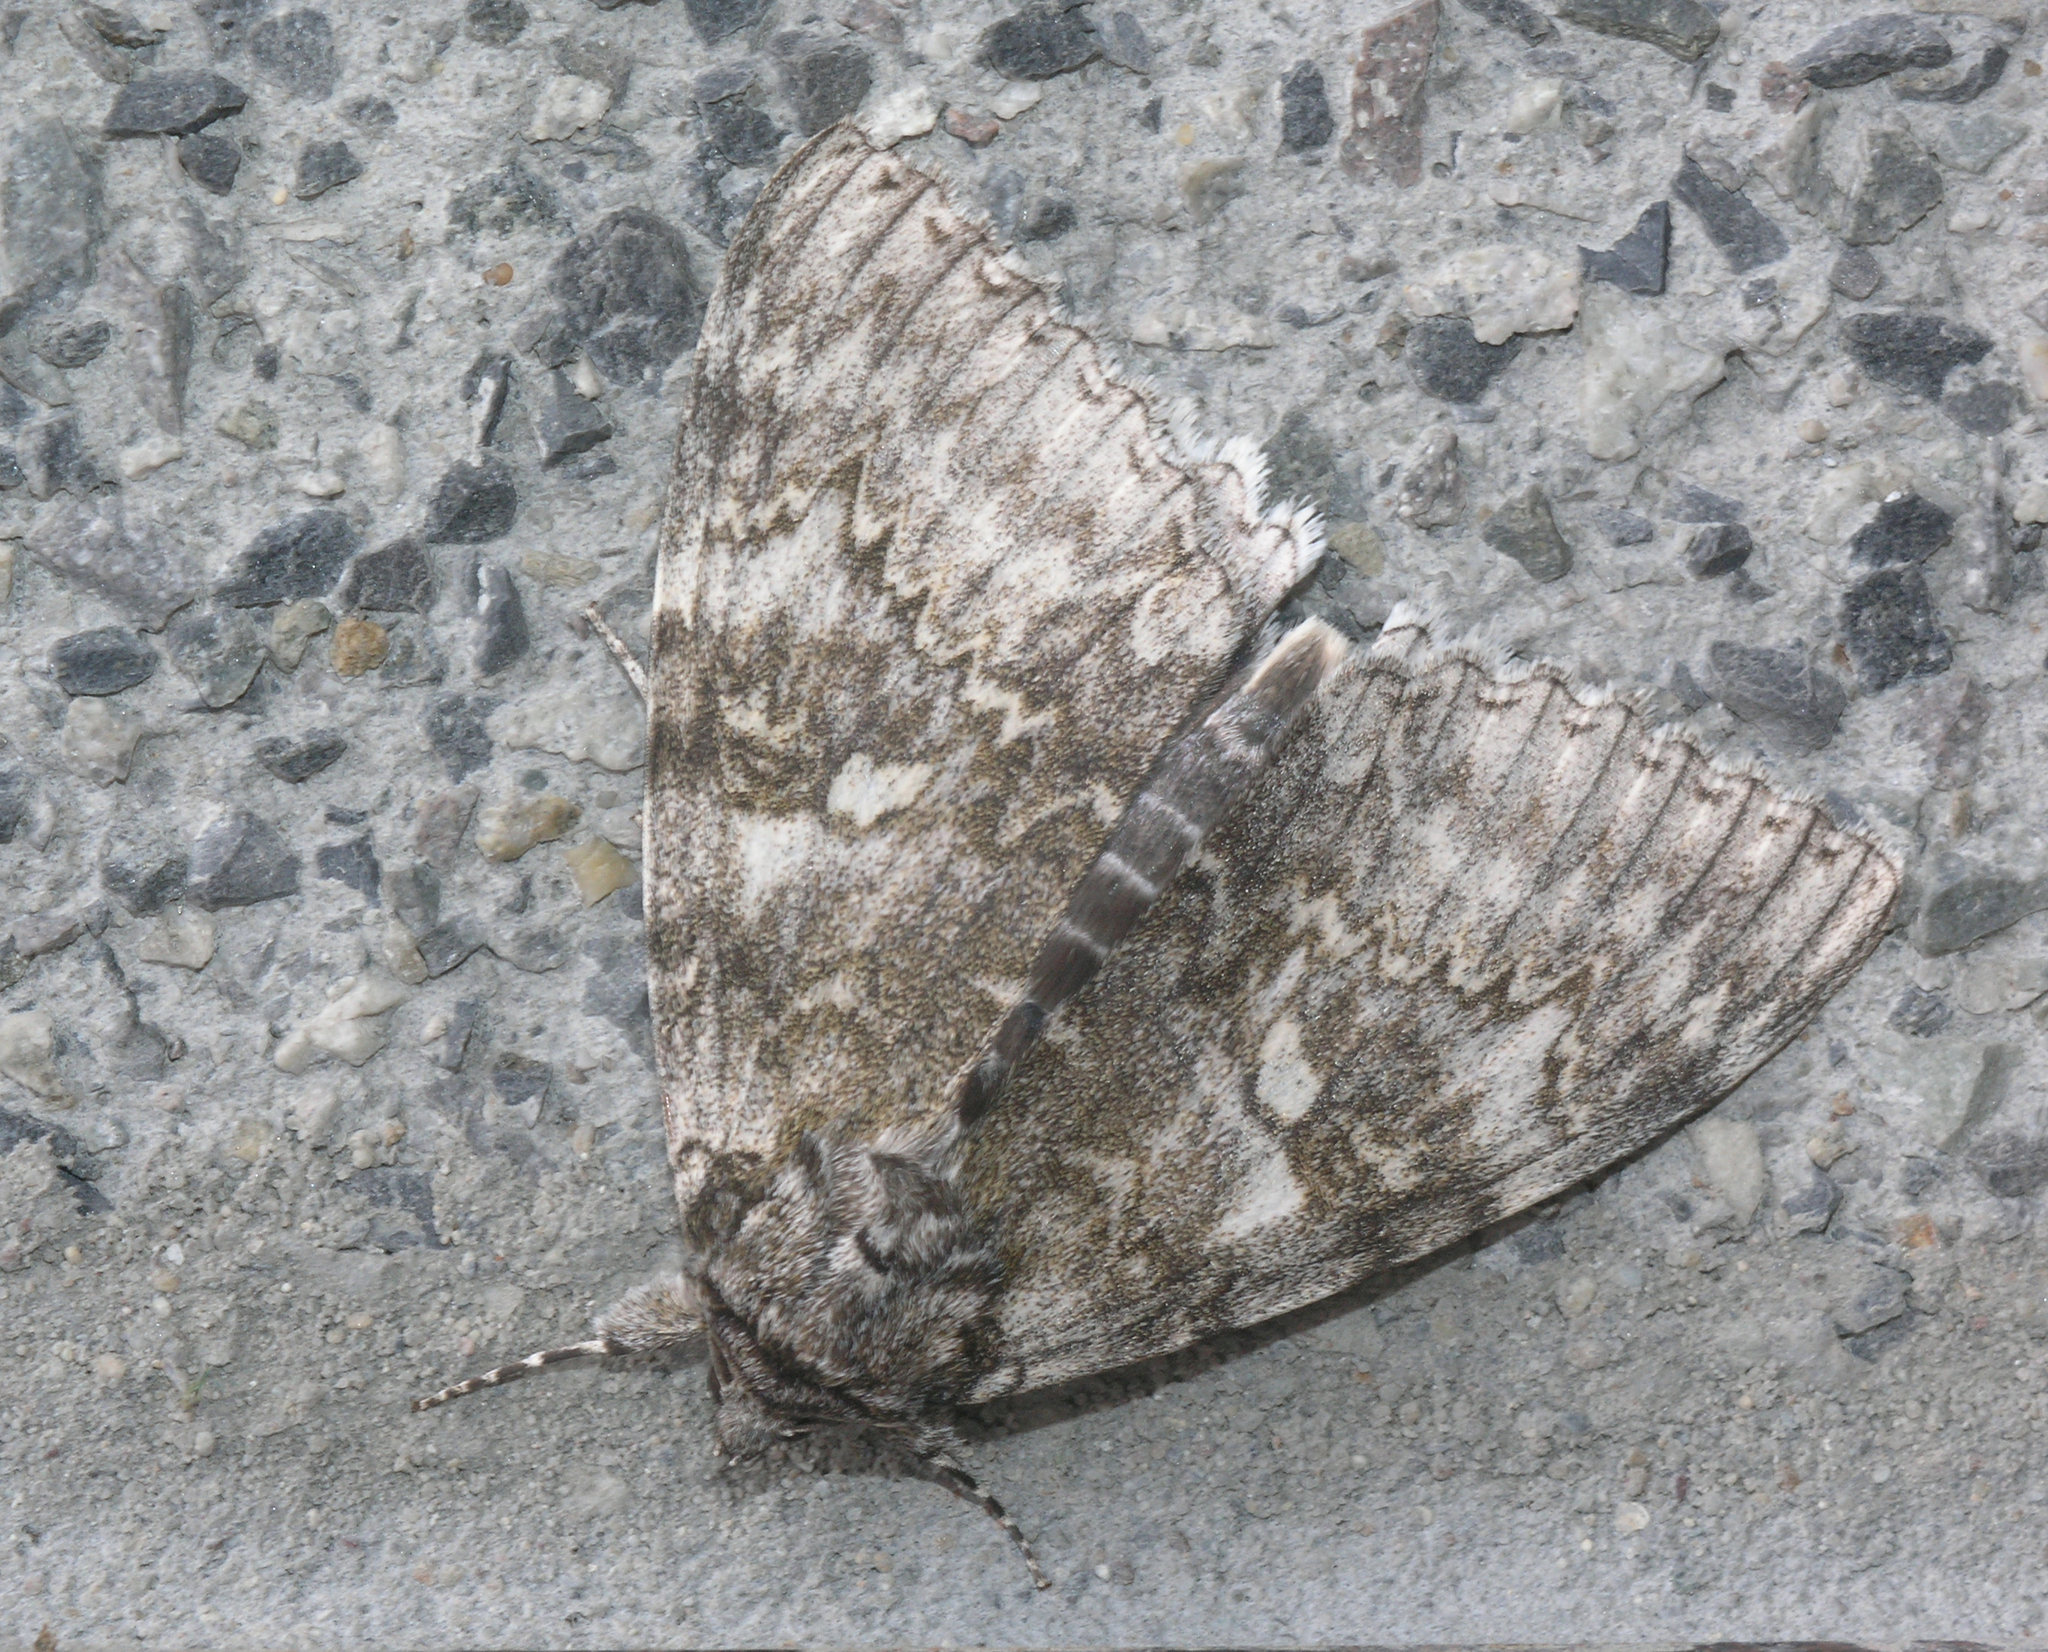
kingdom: Animalia
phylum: Arthropoda
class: Insecta
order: Lepidoptera
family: Erebidae
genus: Catocala
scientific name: Catocala fraxini
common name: Clifden nonpareil
